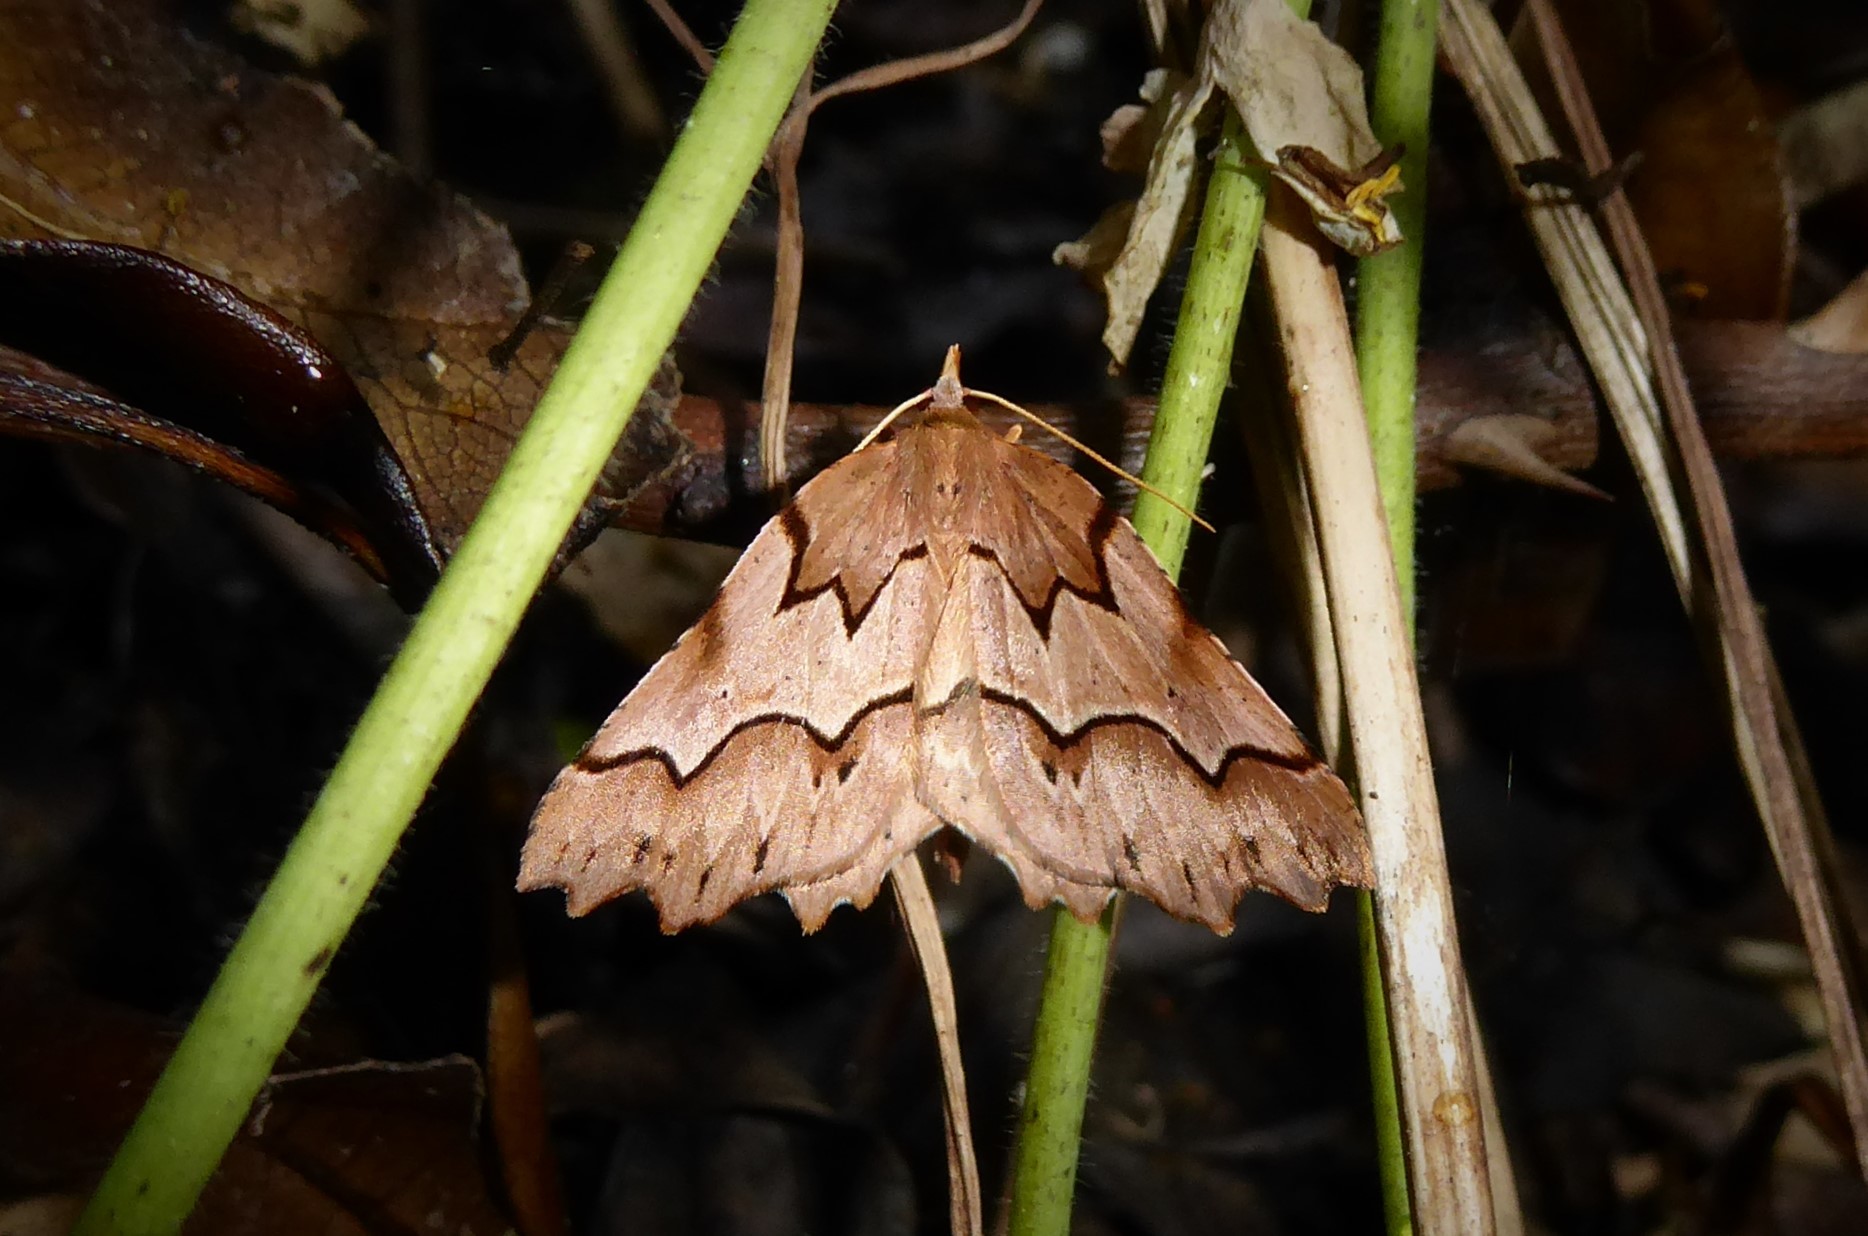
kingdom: Animalia
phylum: Arthropoda
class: Insecta
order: Lepidoptera
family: Geometridae
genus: Ischalis
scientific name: Ischalis fortinata
